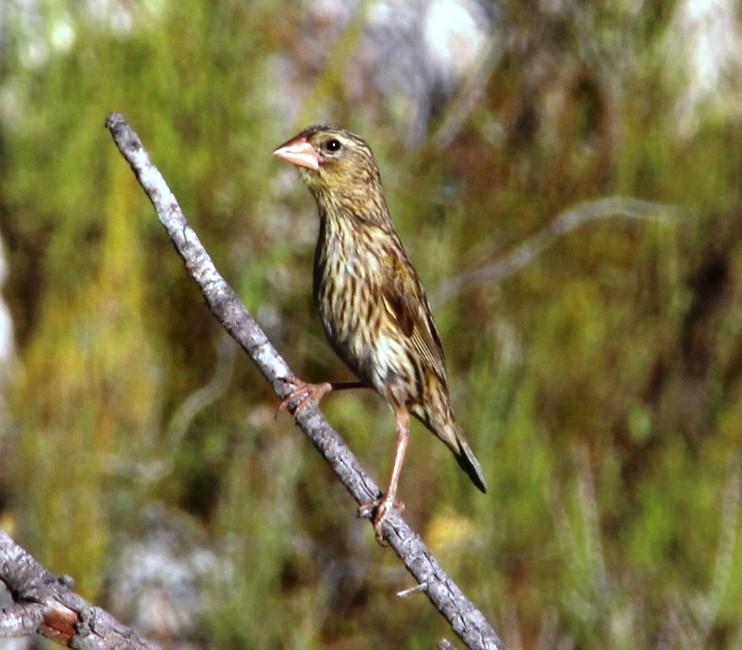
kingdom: Animalia
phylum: Chordata
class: Aves
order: Passeriformes
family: Ploceidae
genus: Euplectes
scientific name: Euplectes capensis
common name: Yellow bishop
